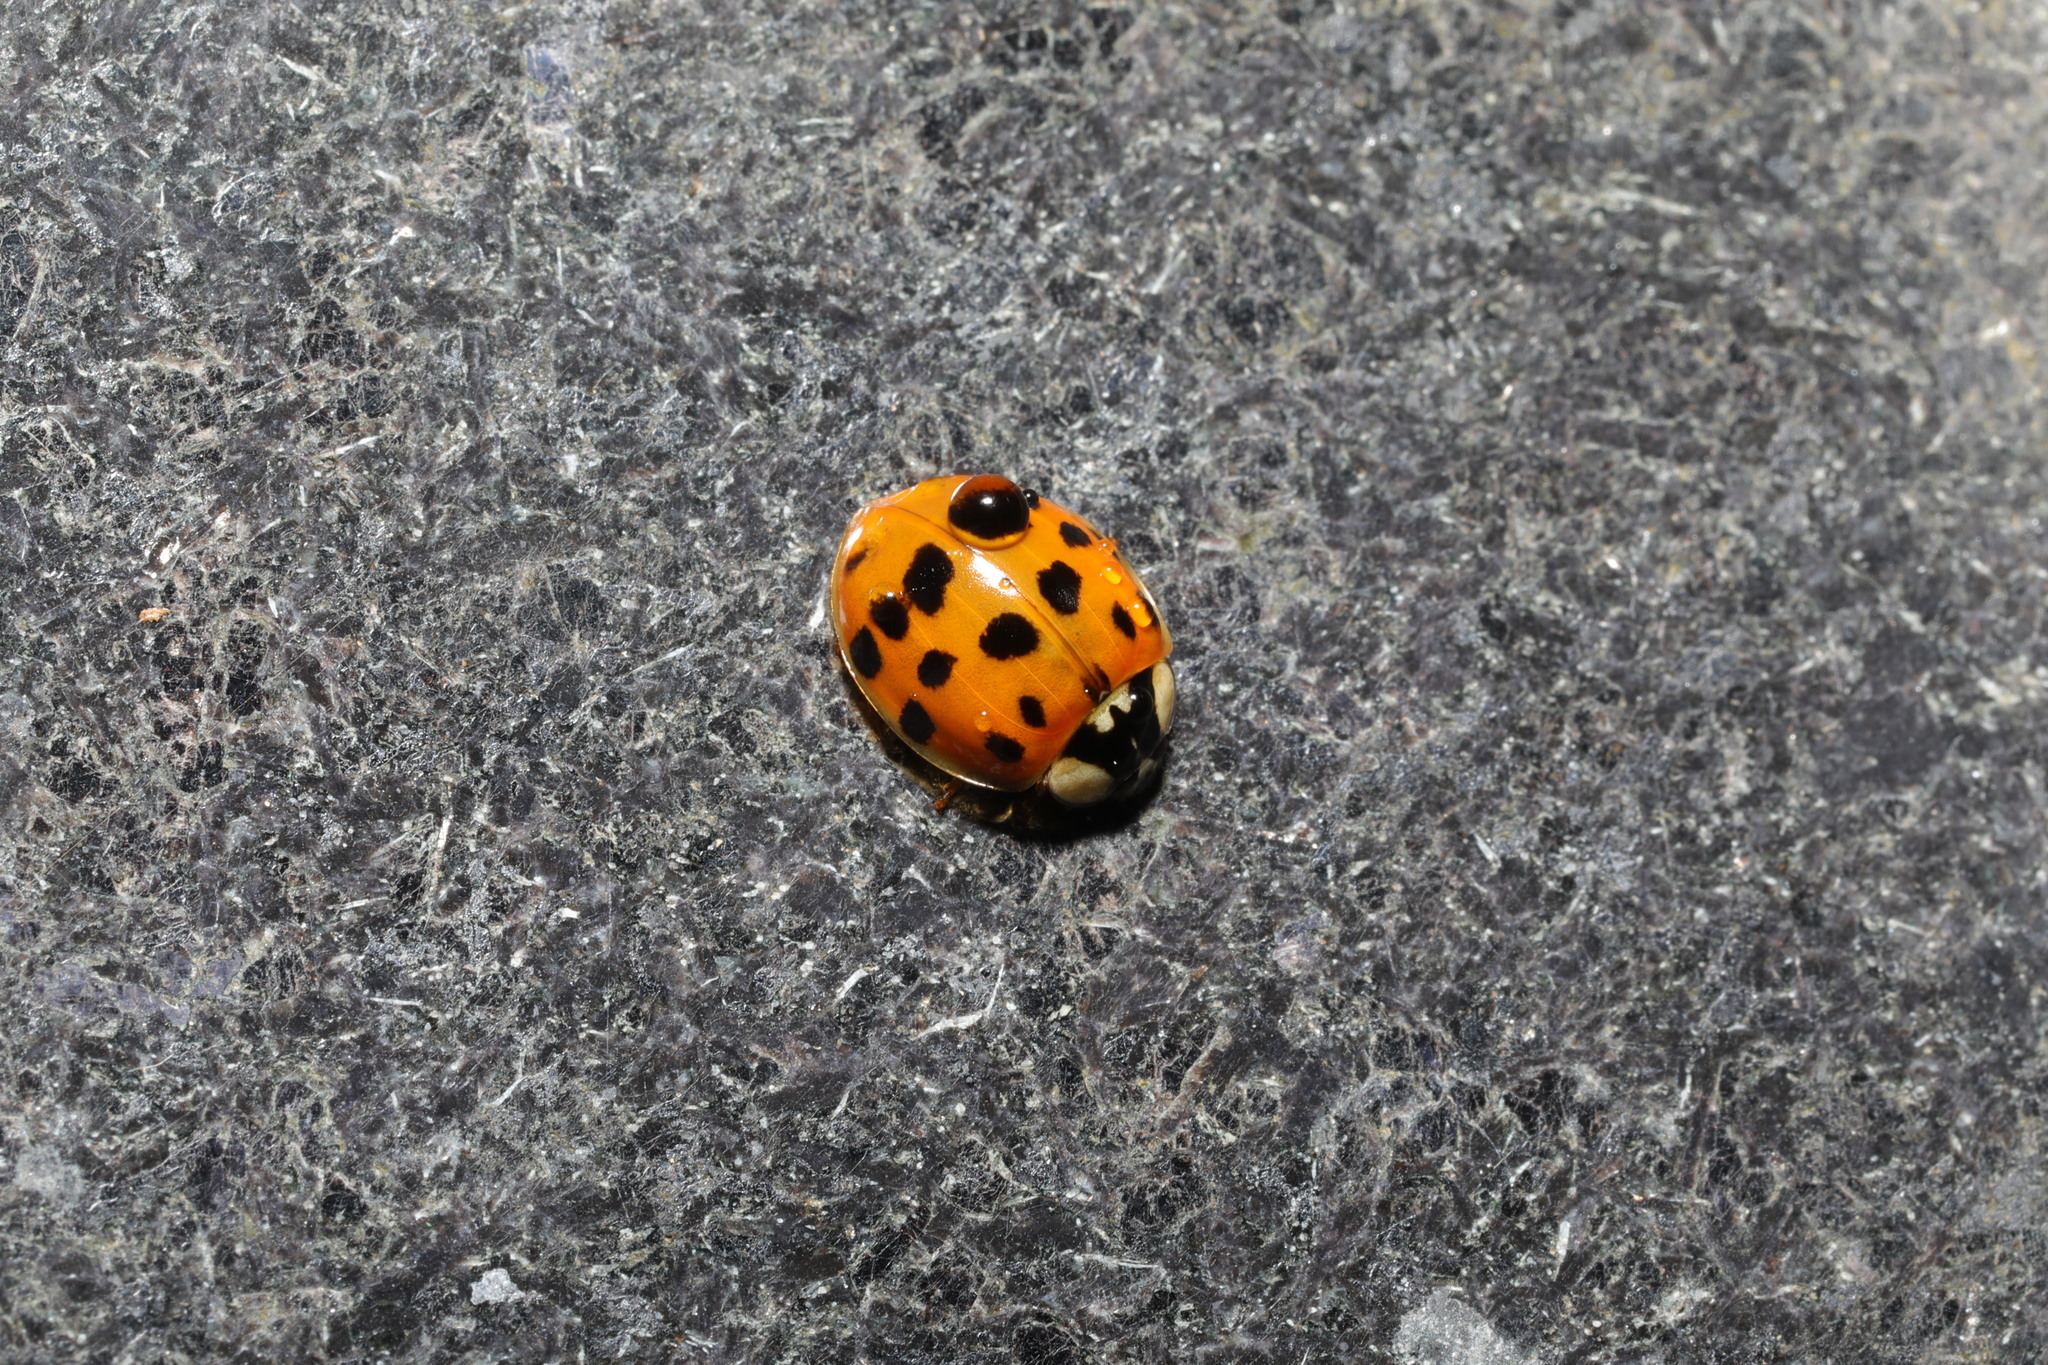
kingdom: Animalia
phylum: Arthropoda
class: Insecta
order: Coleoptera
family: Coccinellidae
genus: Harmonia
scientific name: Harmonia axyridis
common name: Harlequin ladybird
